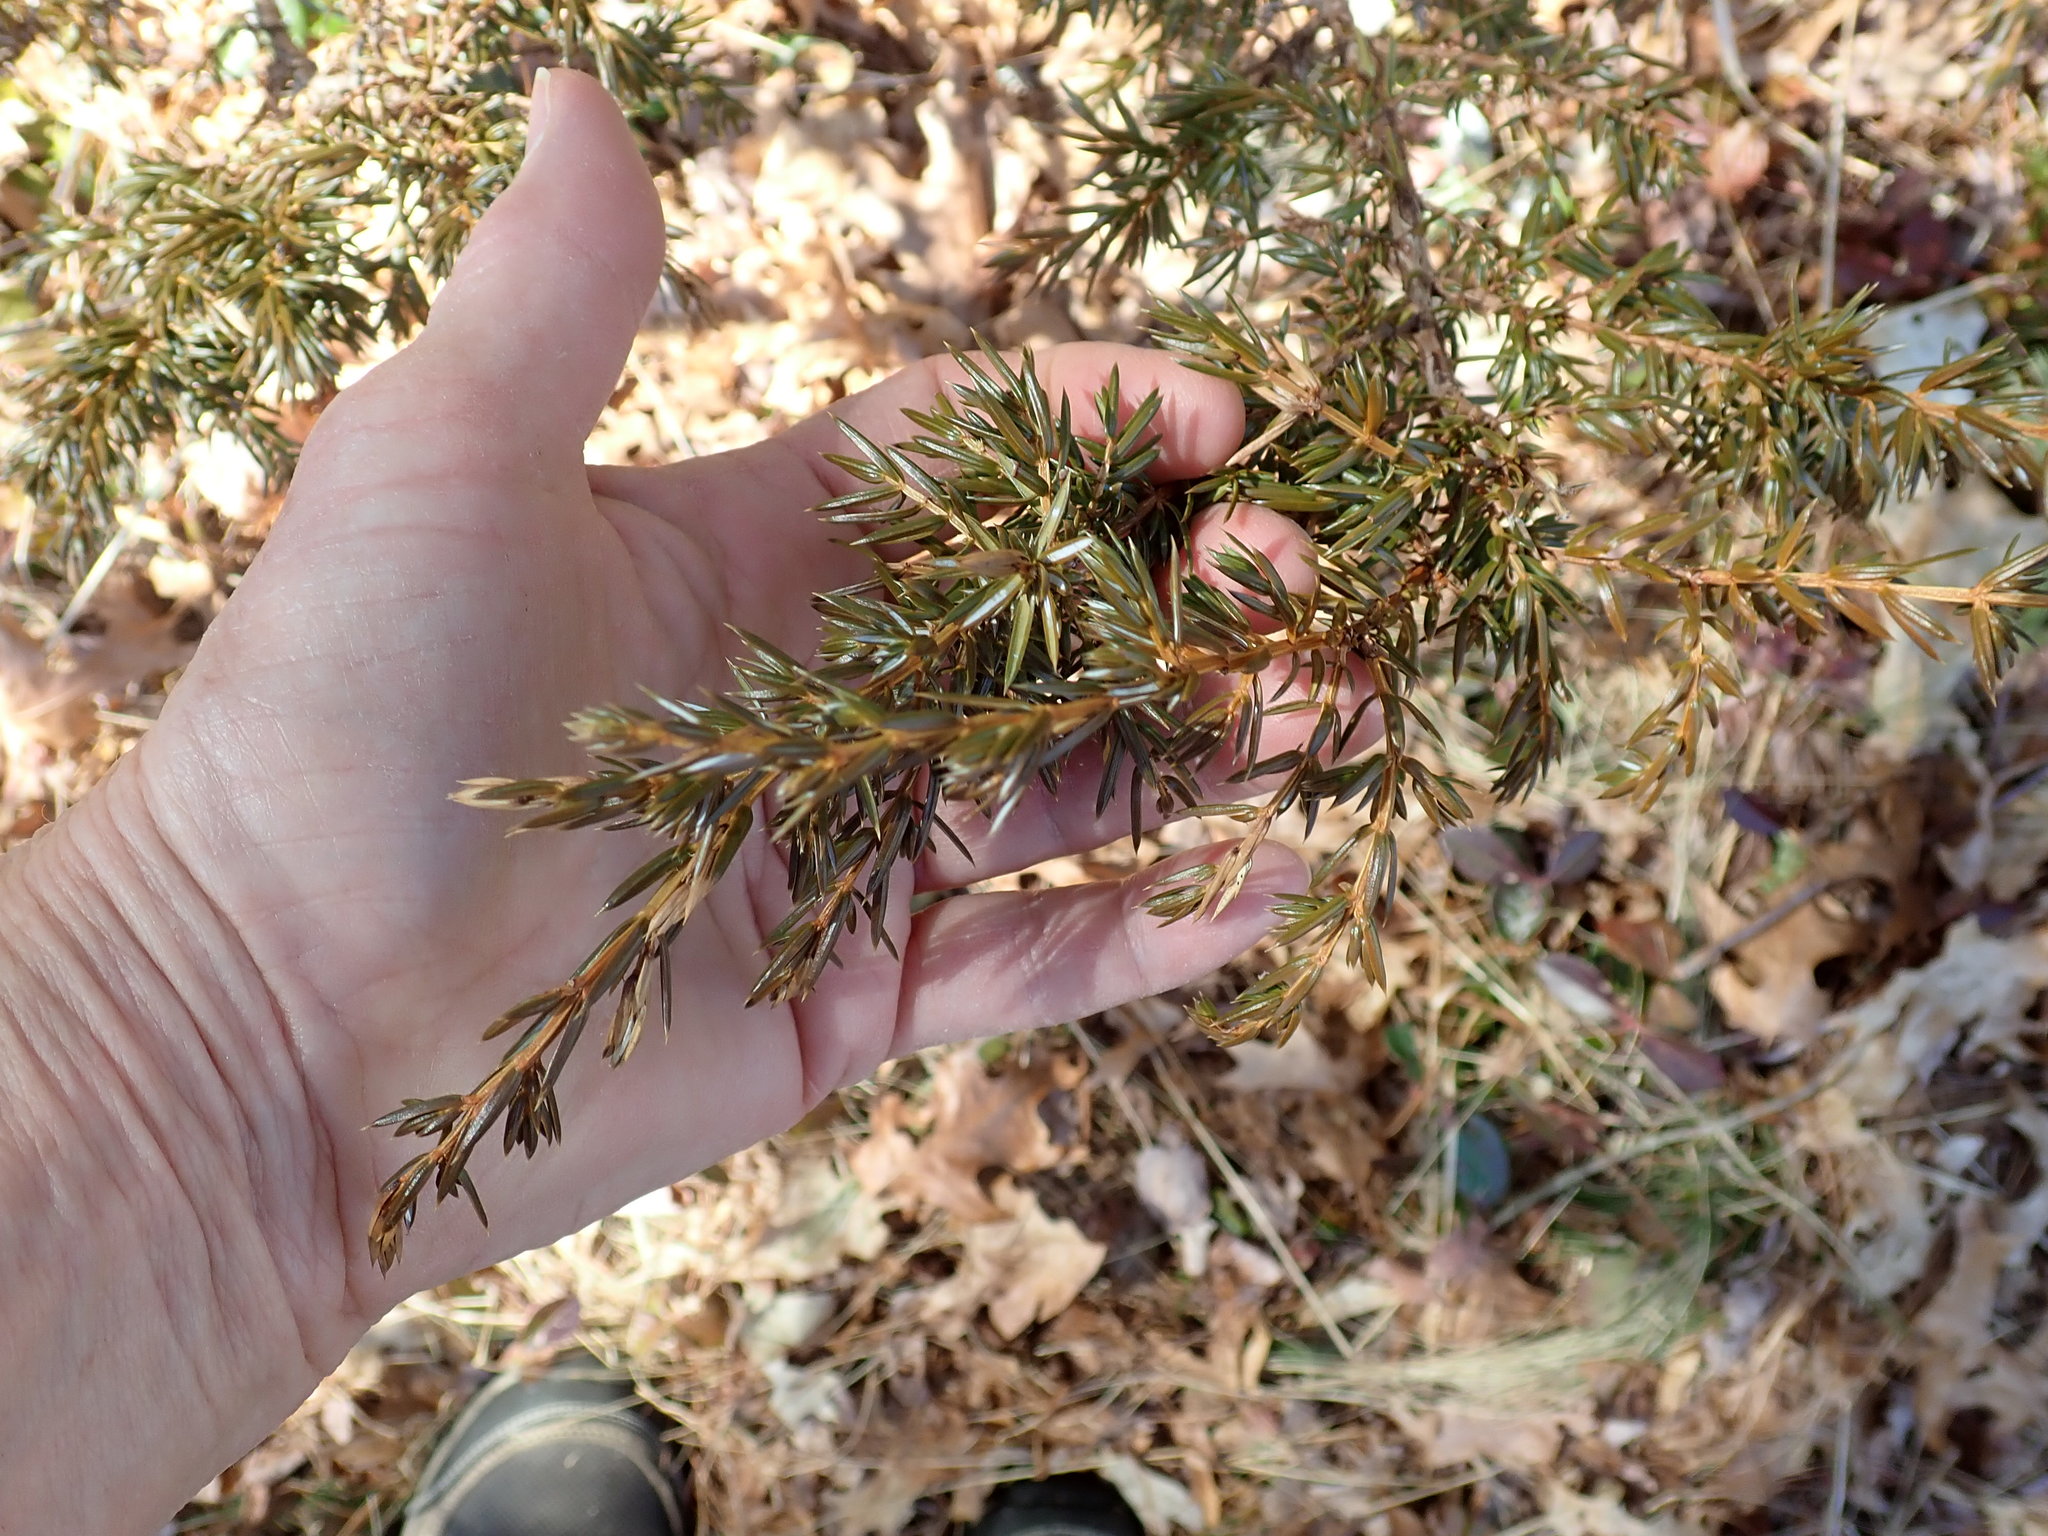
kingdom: Plantae
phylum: Tracheophyta
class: Pinopsida
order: Pinales
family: Cupressaceae
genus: Juniperus
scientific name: Juniperus communis
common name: Common juniper
